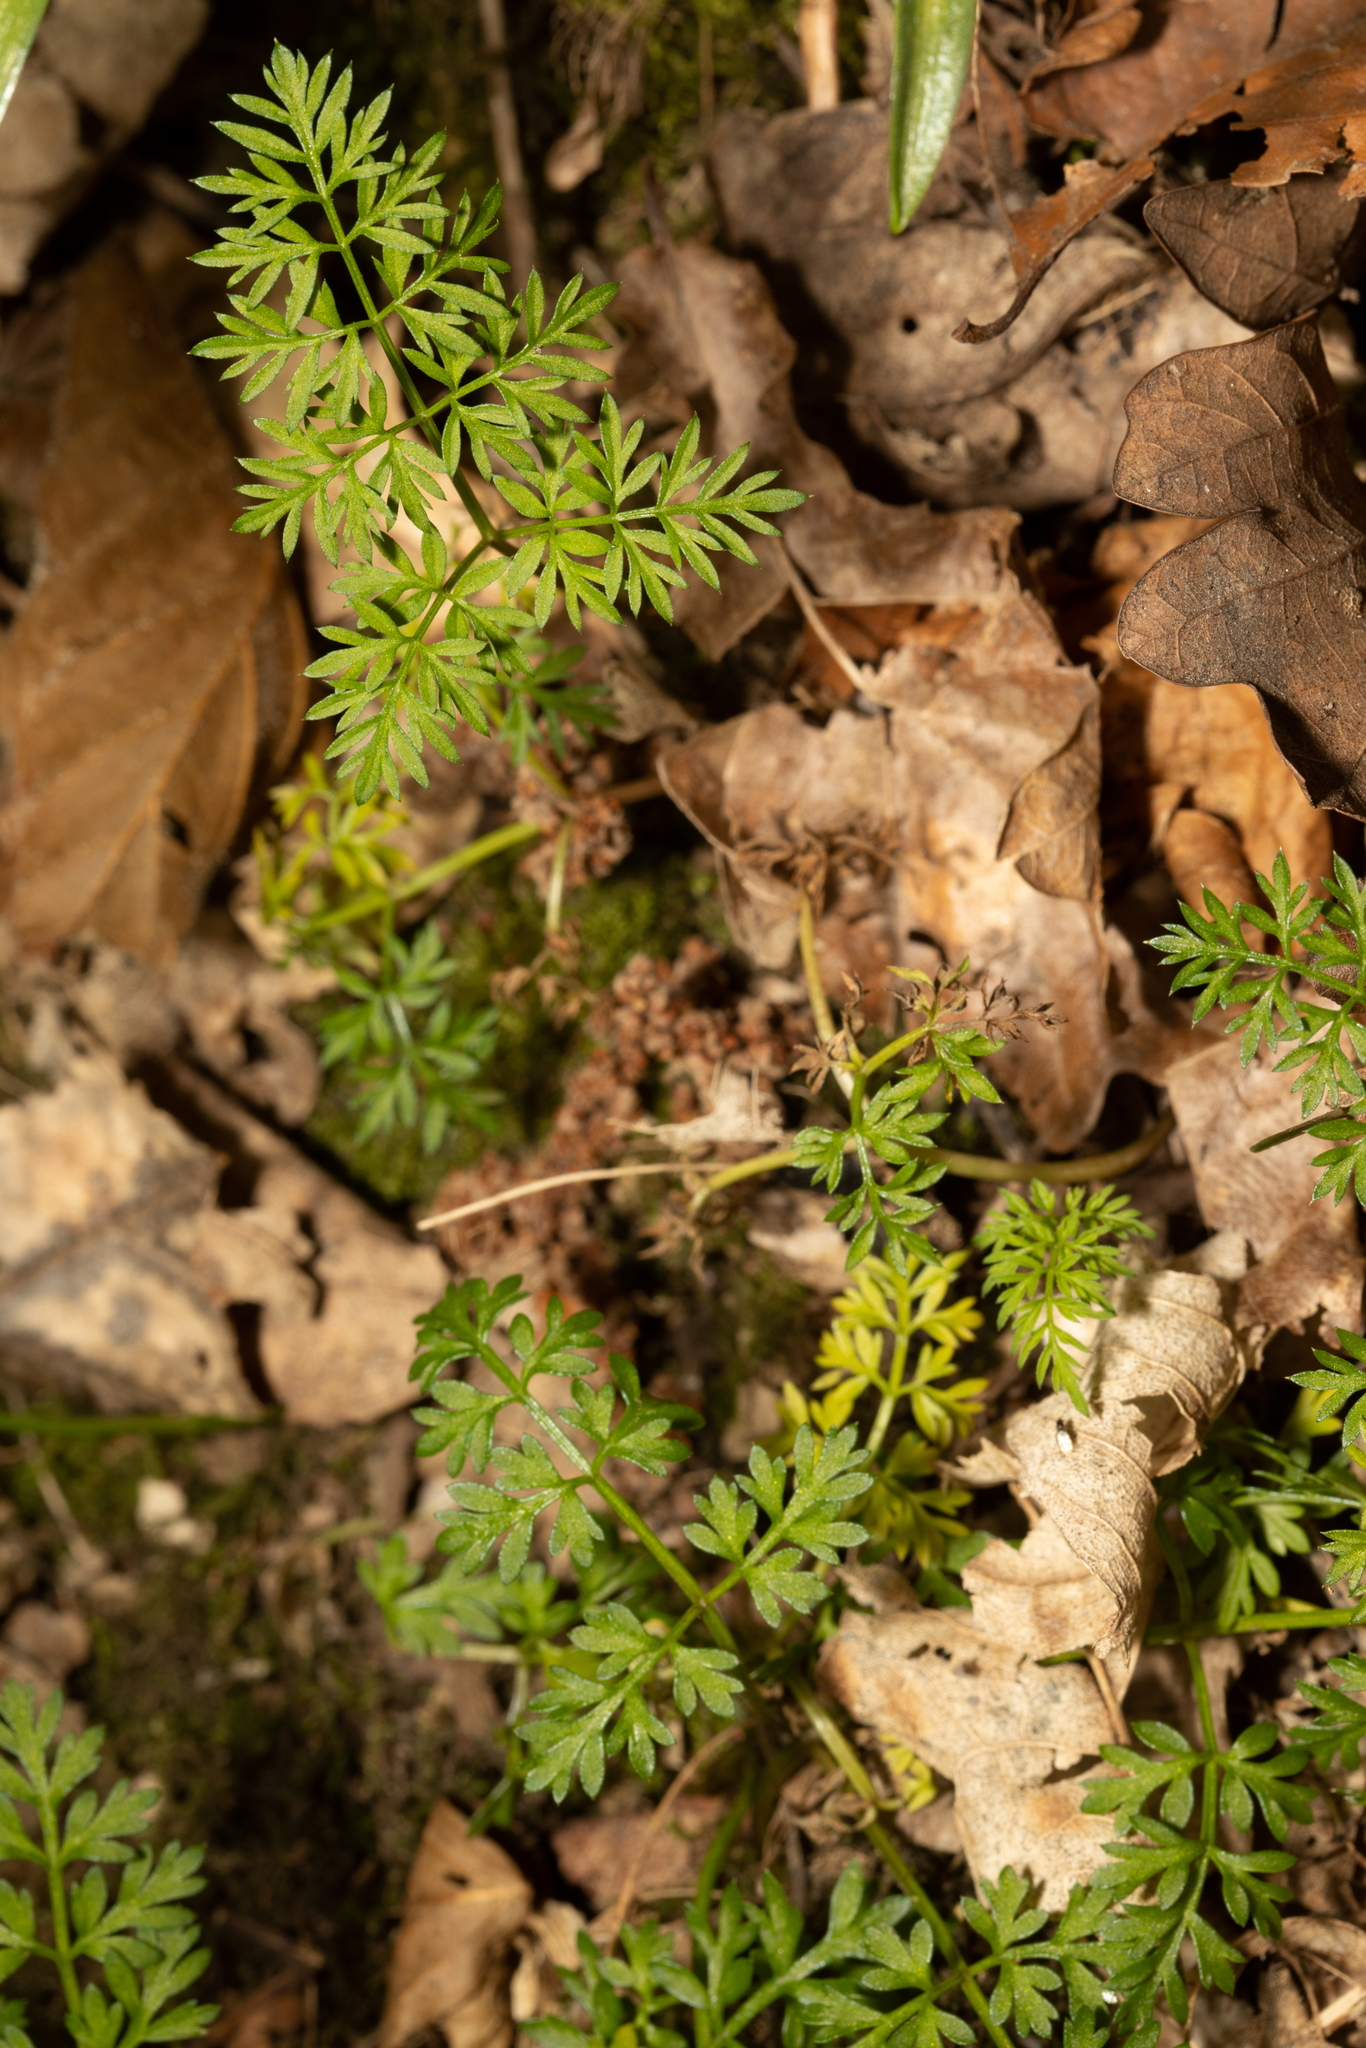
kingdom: Plantae
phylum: Tracheophyta
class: Magnoliopsida
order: Apiales
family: Apiaceae
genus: Conopodium
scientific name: Conopodium majus
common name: Pignut
